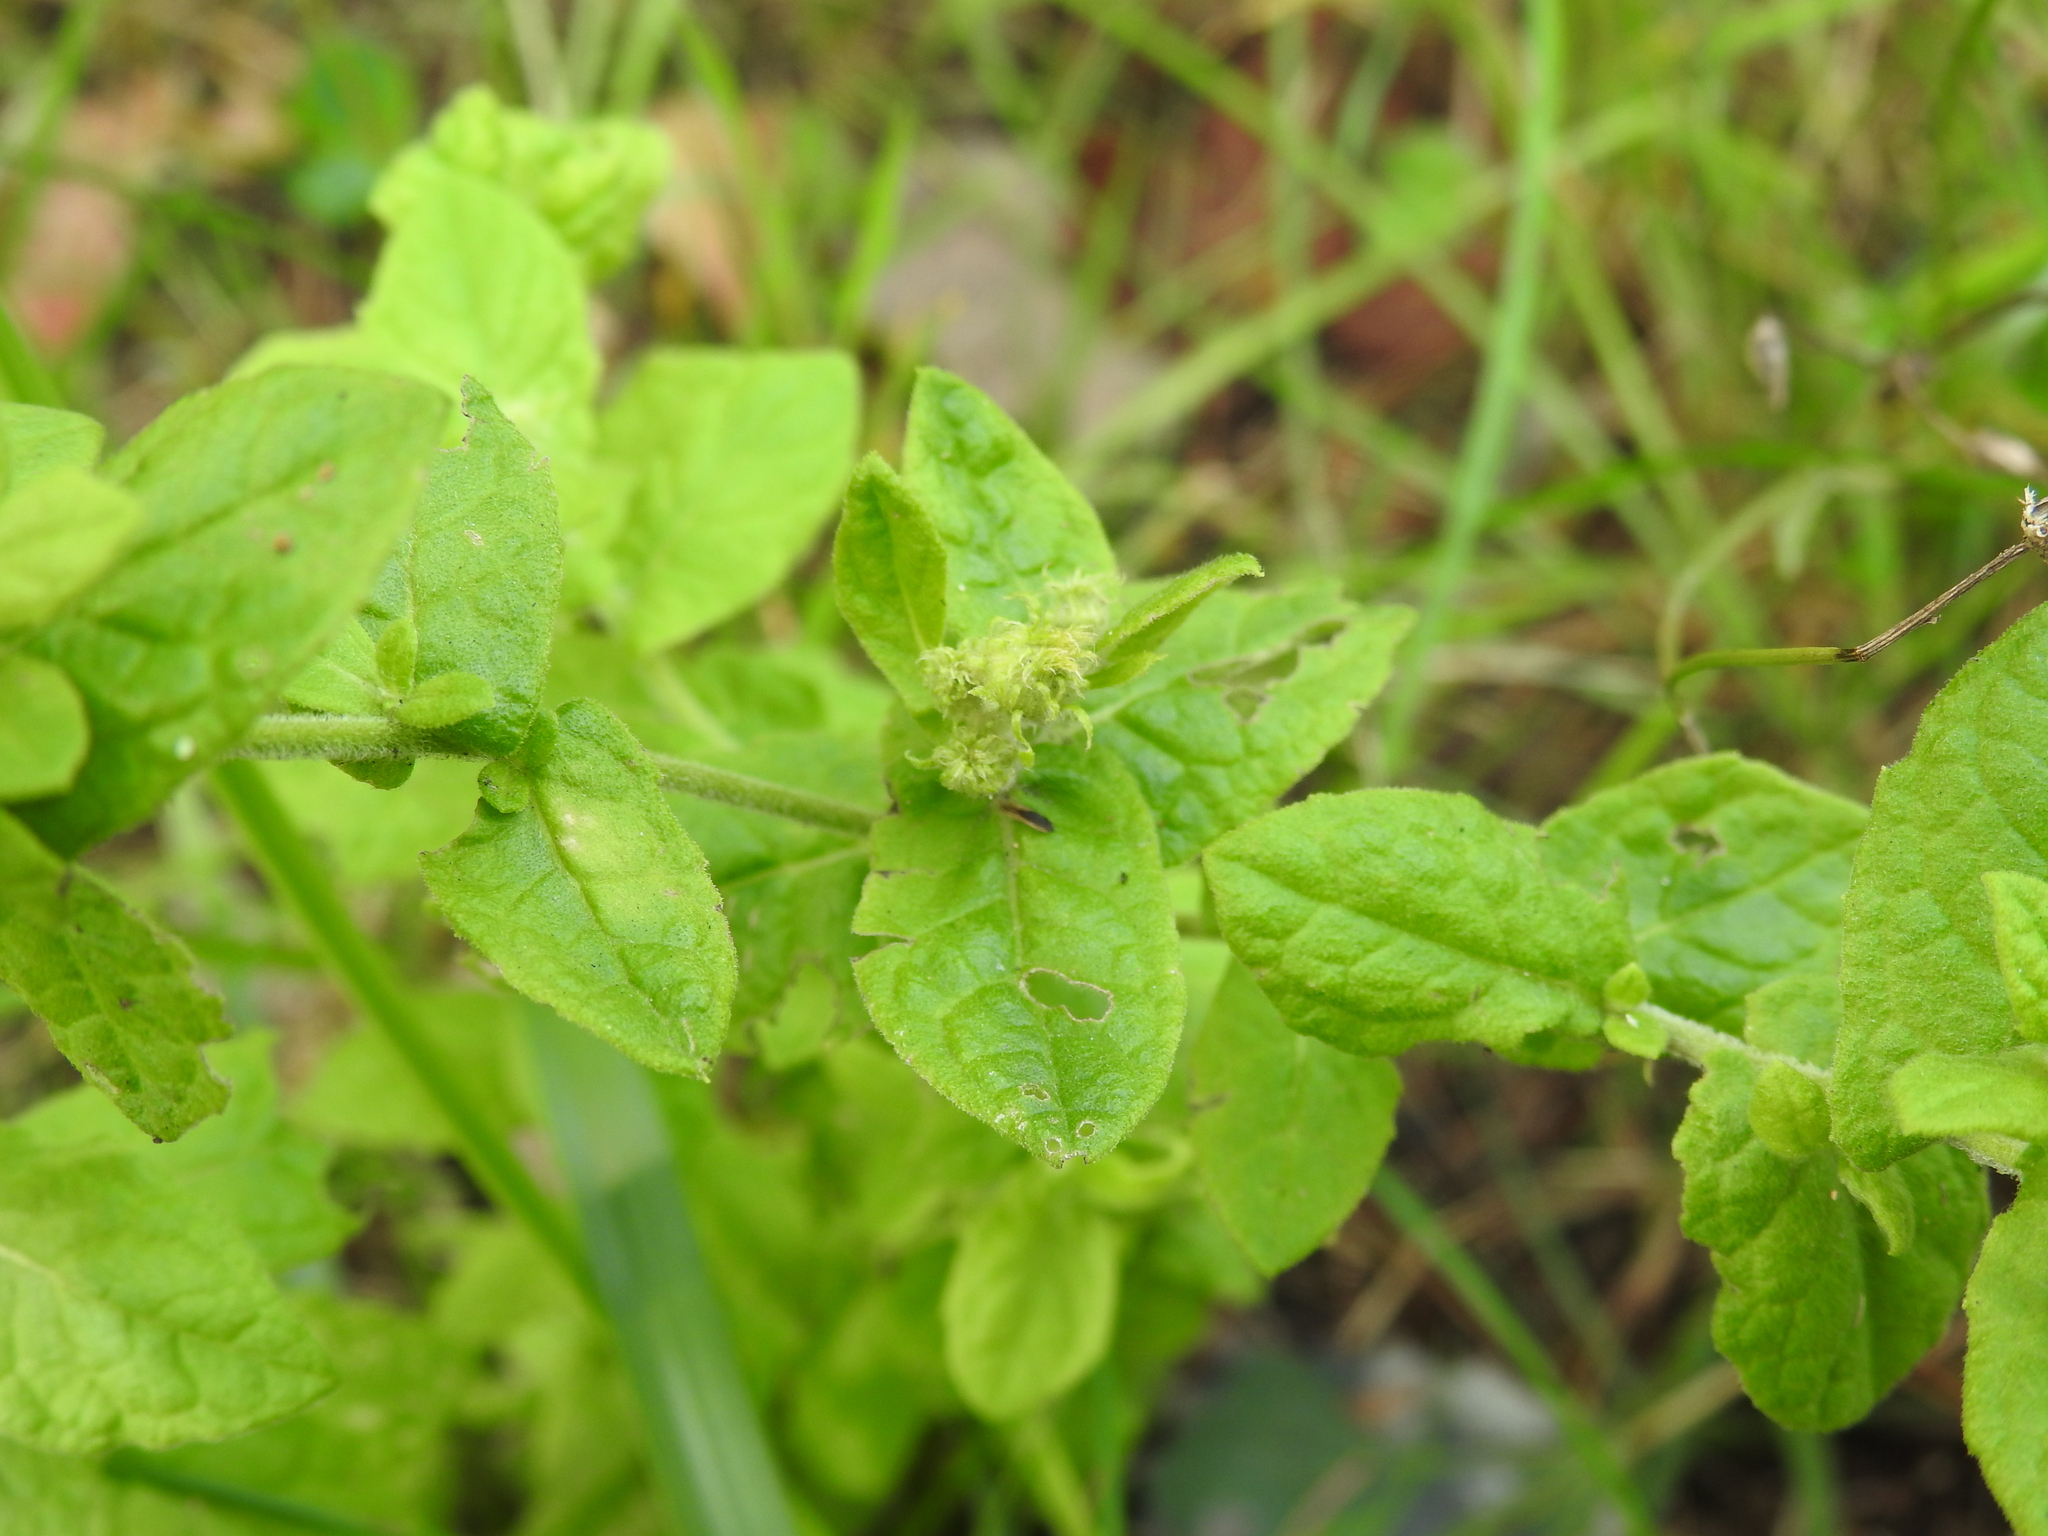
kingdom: Plantae
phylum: Tracheophyta
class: Magnoliopsida
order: Asterales
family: Asteraceae
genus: Pulicaria
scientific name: Pulicaria dysenterica
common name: Common fleabane
